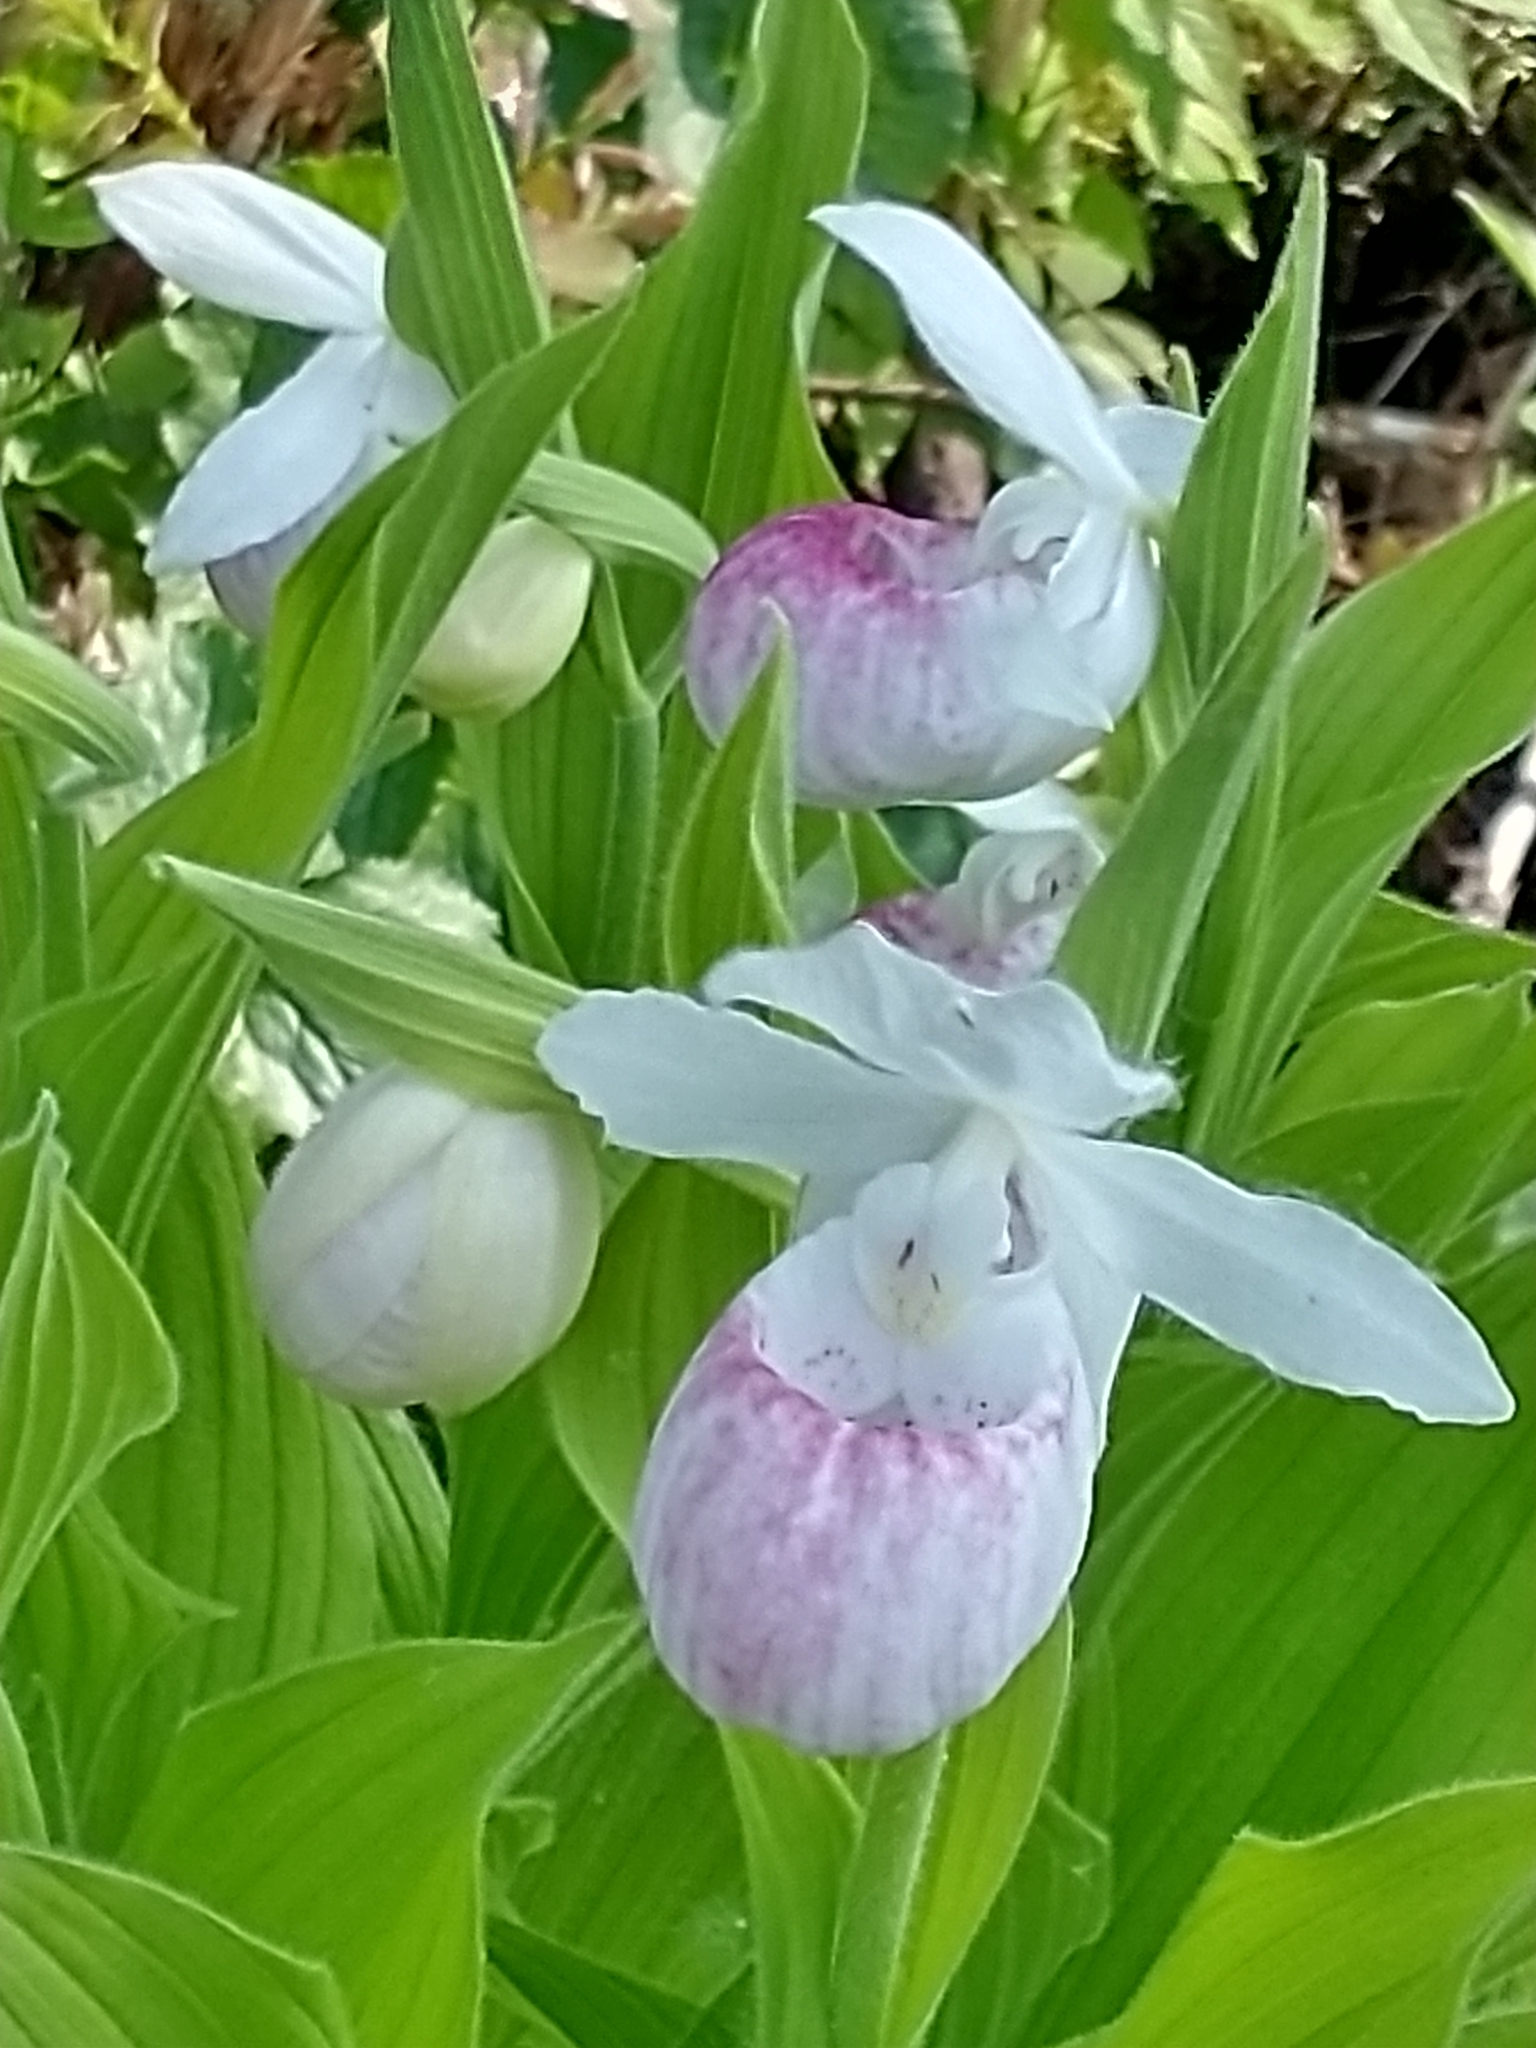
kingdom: Plantae
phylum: Tracheophyta
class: Liliopsida
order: Asparagales
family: Orchidaceae
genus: Cypripedium
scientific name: Cypripedium reginae
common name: Queen lady's-slipper
